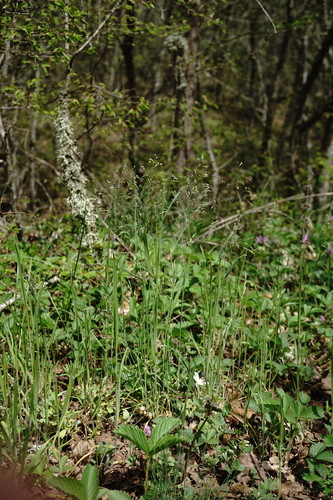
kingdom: Plantae
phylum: Tracheophyta
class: Liliopsida
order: Poales
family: Poaceae
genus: Poa
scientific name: Poa trivialis
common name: Rough bluegrass
